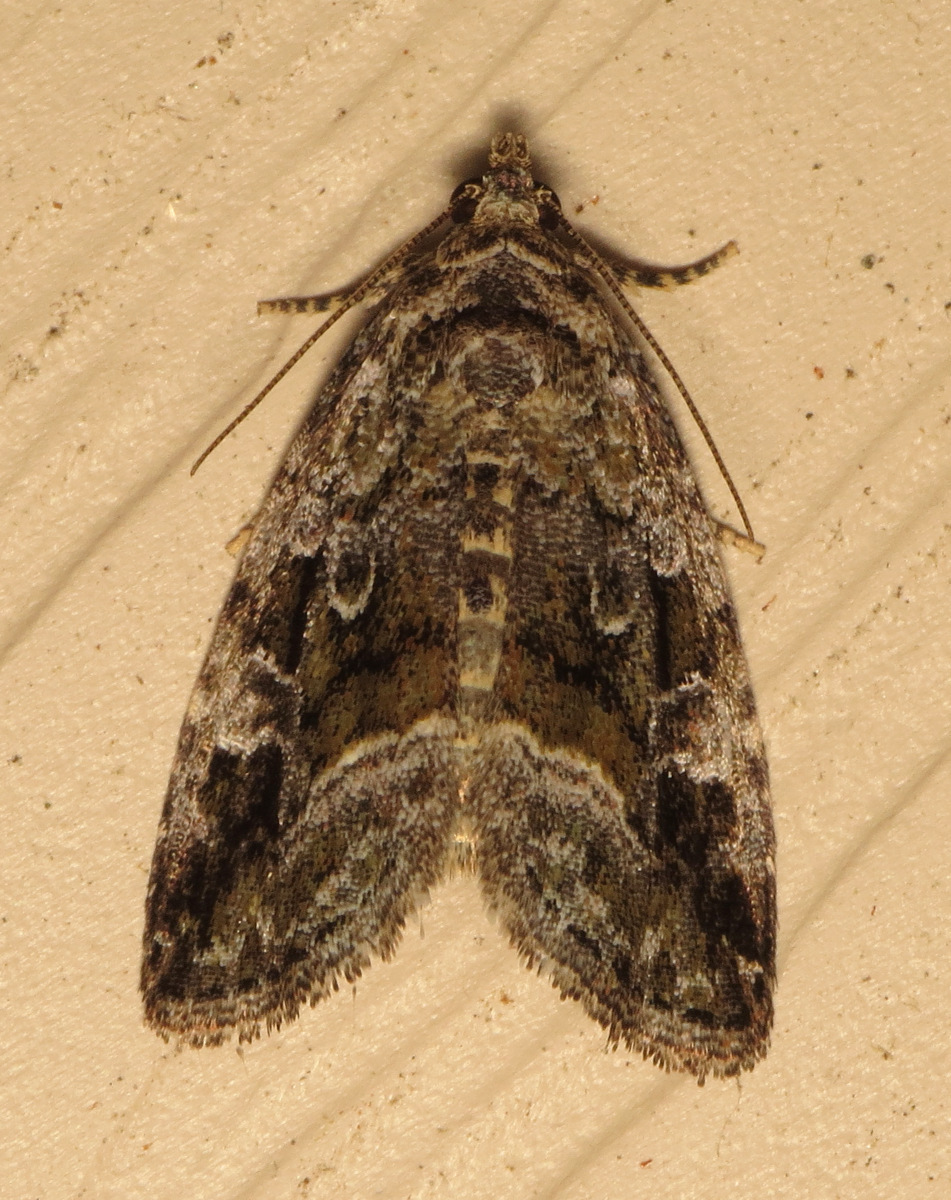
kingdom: Animalia
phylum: Arthropoda
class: Insecta
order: Lepidoptera
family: Noctuidae
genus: Protodeltote
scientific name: Protodeltote muscosula
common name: Large mossy glyph
